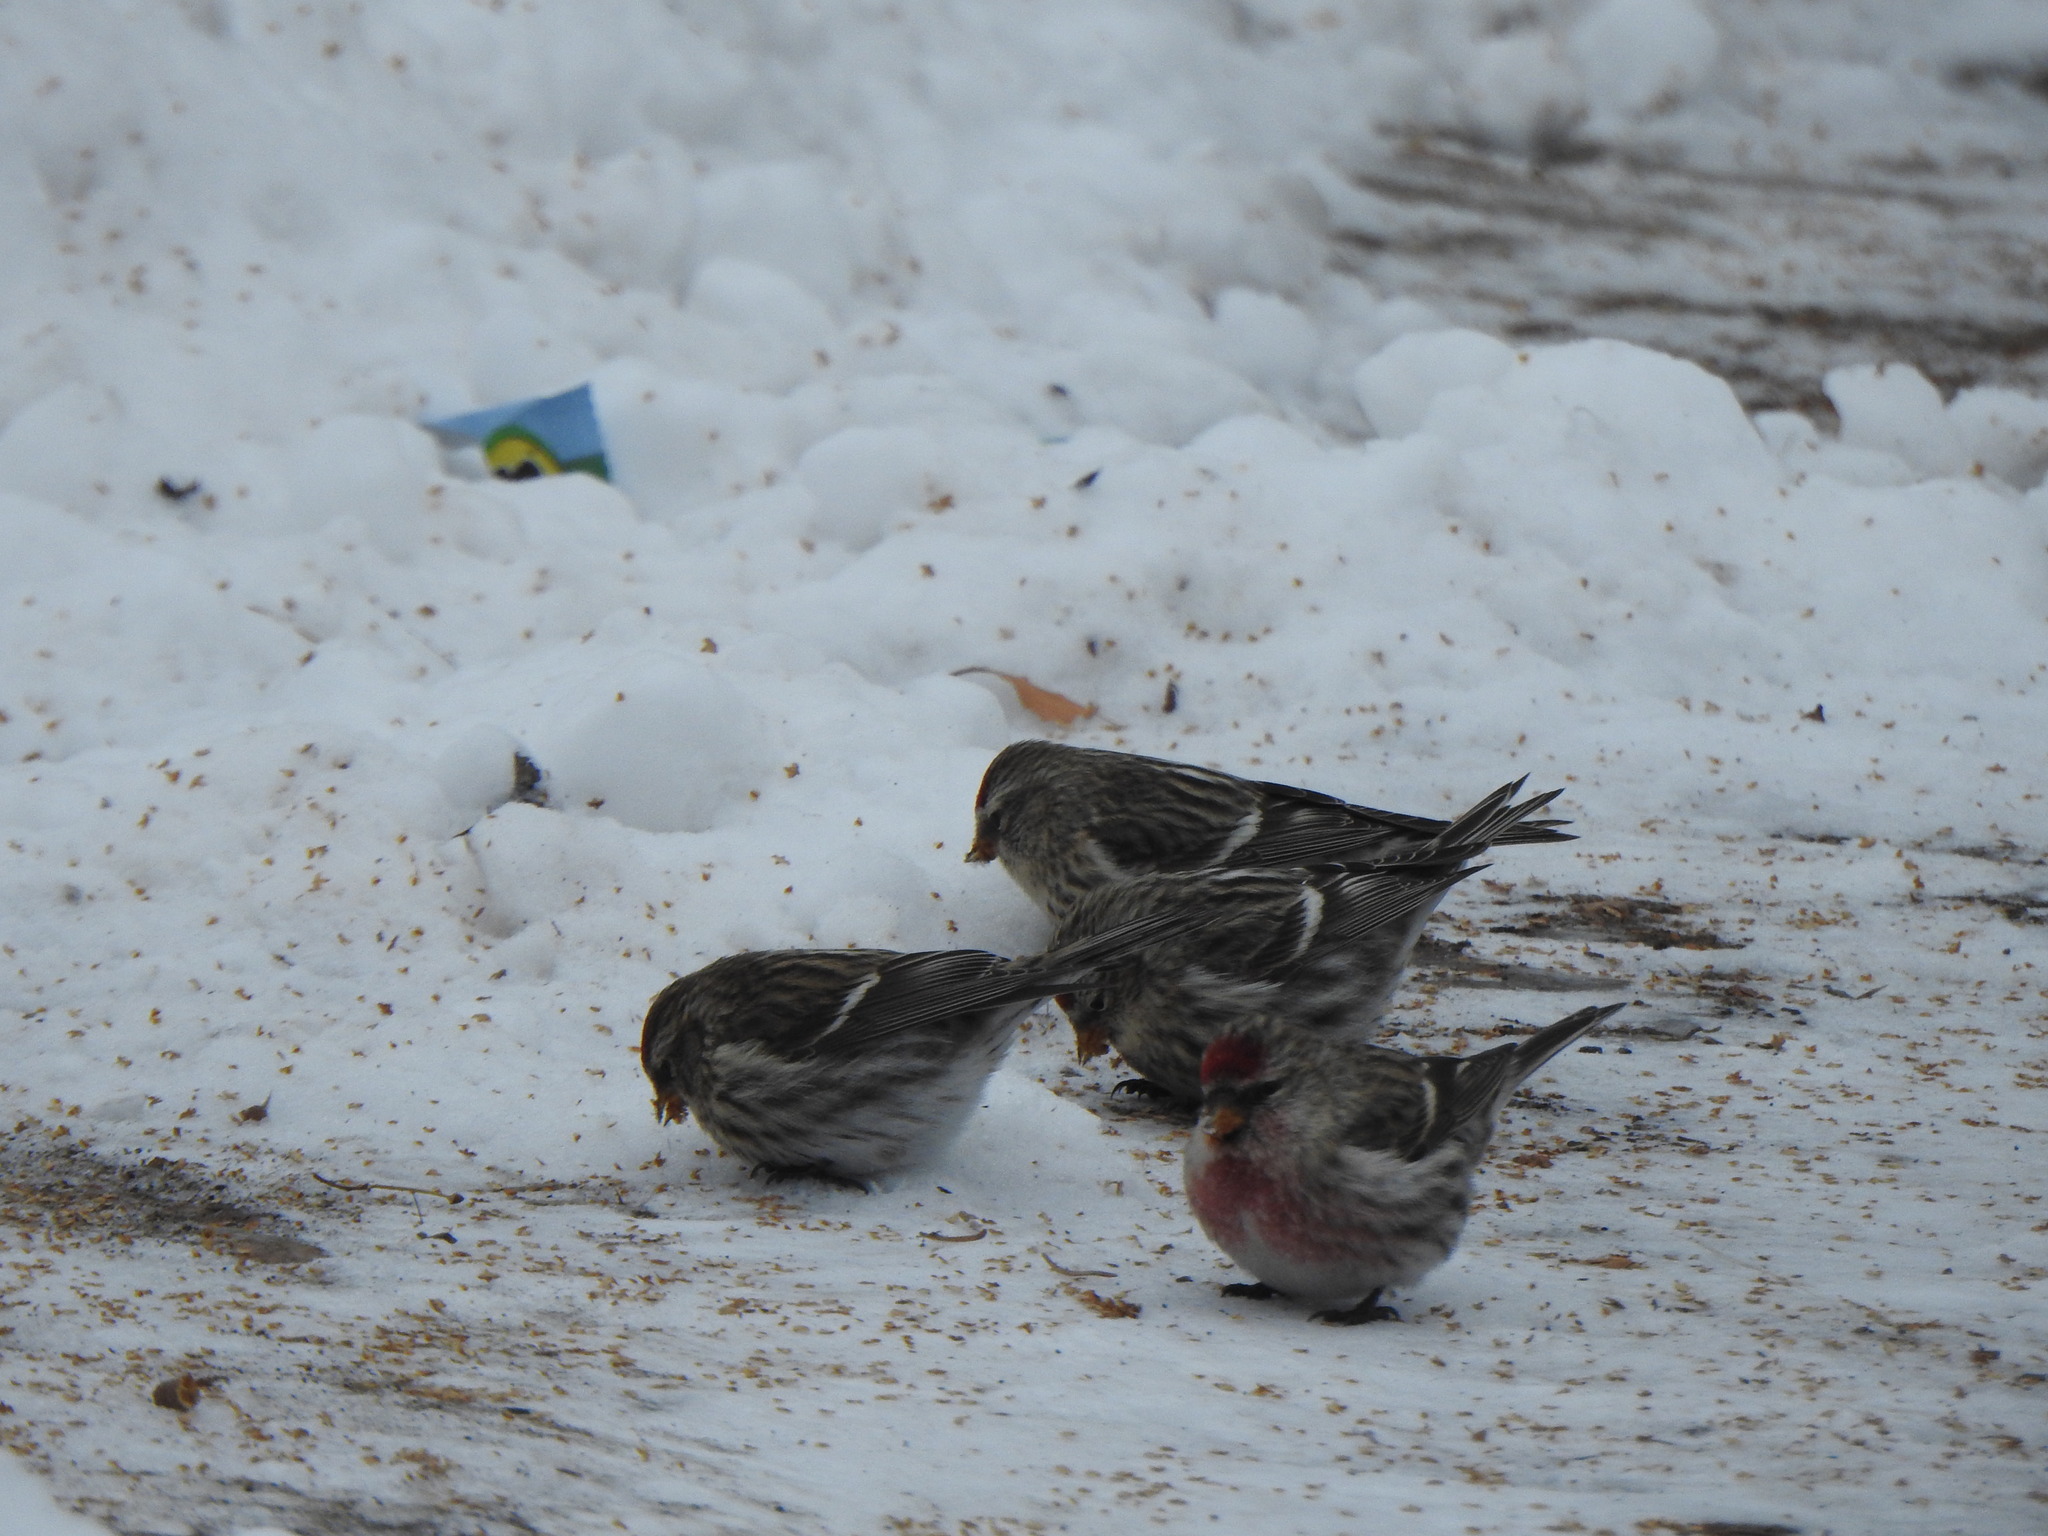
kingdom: Animalia
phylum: Chordata
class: Aves
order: Passeriformes
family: Fringillidae
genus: Acanthis
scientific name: Acanthis flammea
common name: Common redpoll
